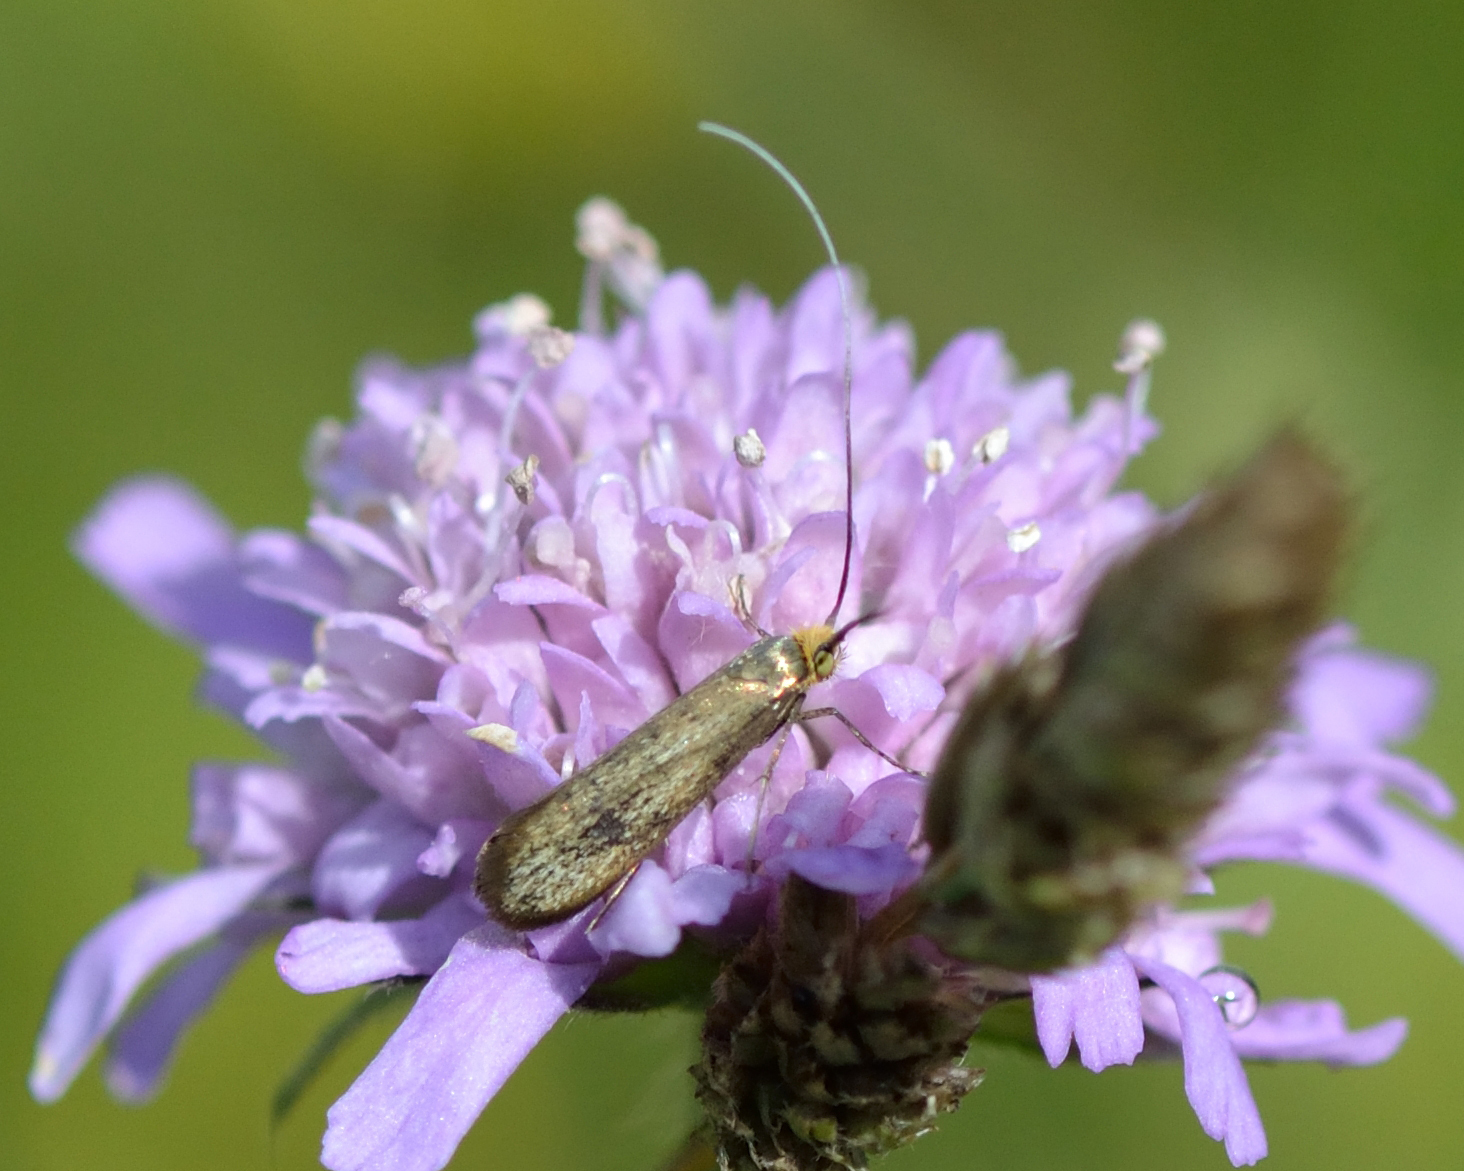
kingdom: Animalia
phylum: Arthropoda
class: Insecta
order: Lepidoptera
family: Adelidae
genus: Nemophora
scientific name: Nemophora metallica
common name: Brassy long-horn
